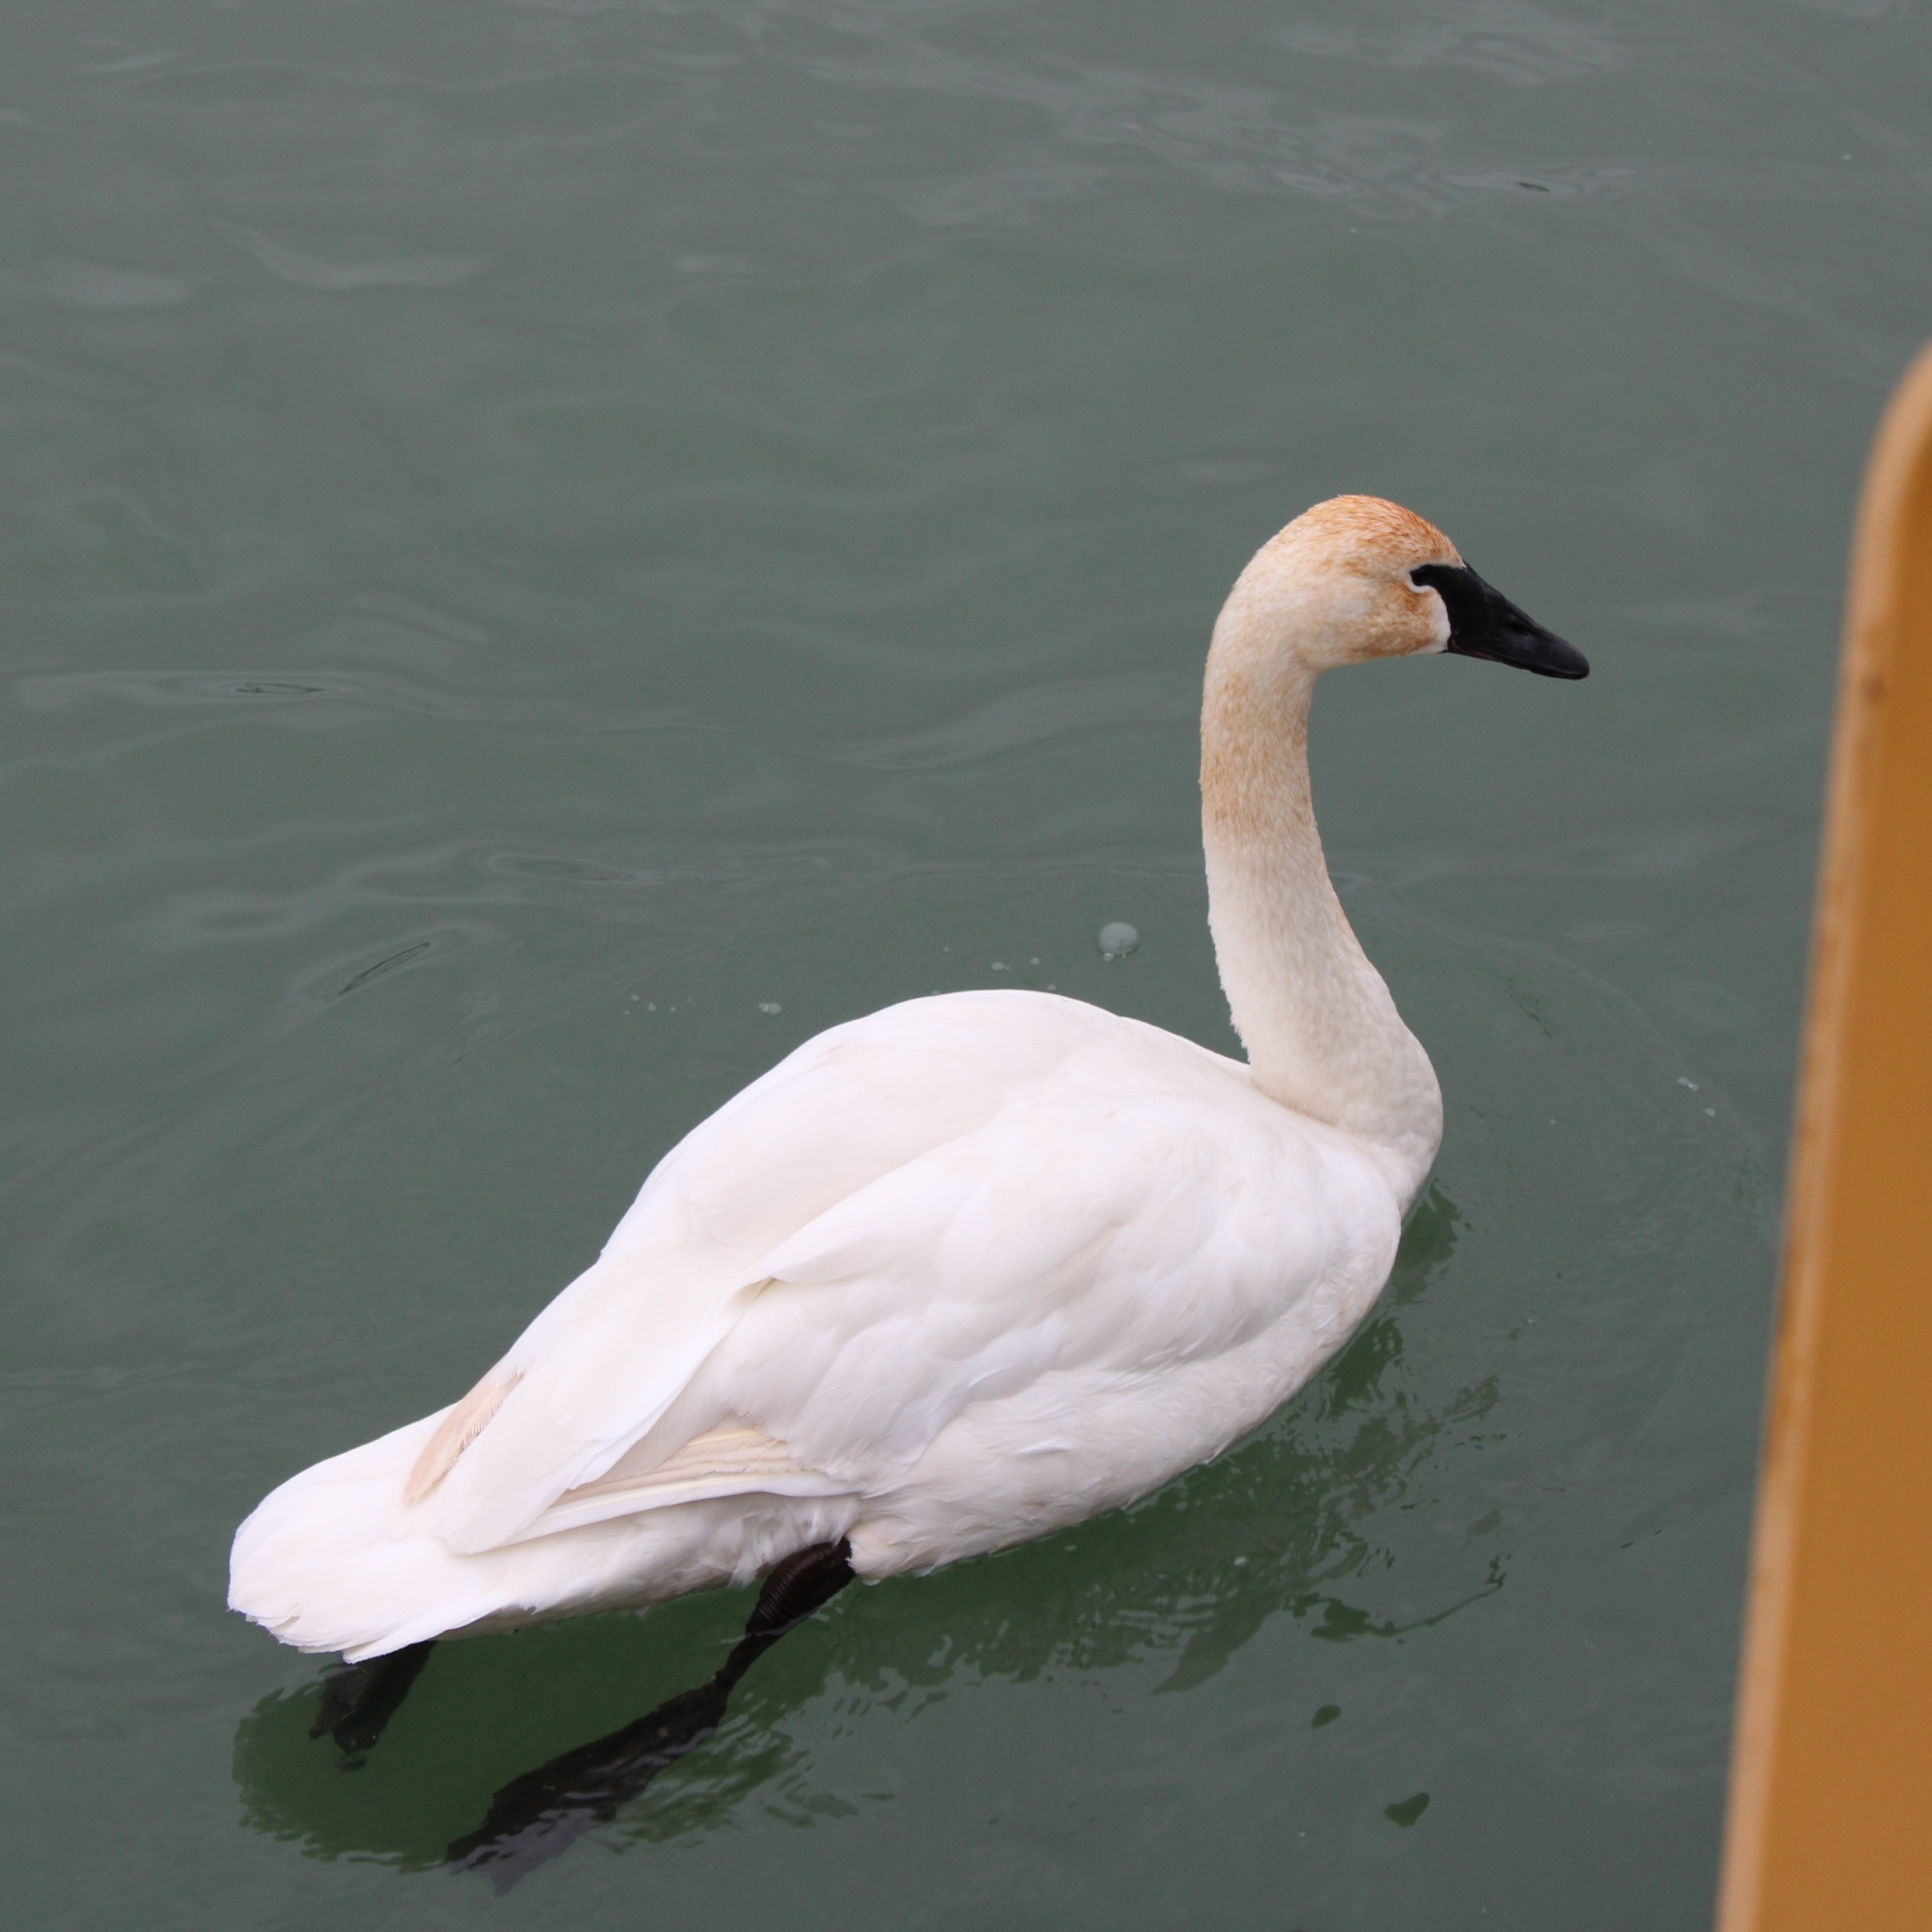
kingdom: Animalia
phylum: Chordata
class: Aves
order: Anseriformes
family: Anatidae
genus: Cygnus
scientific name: Cygnus buccinator
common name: Trumpeter swan
